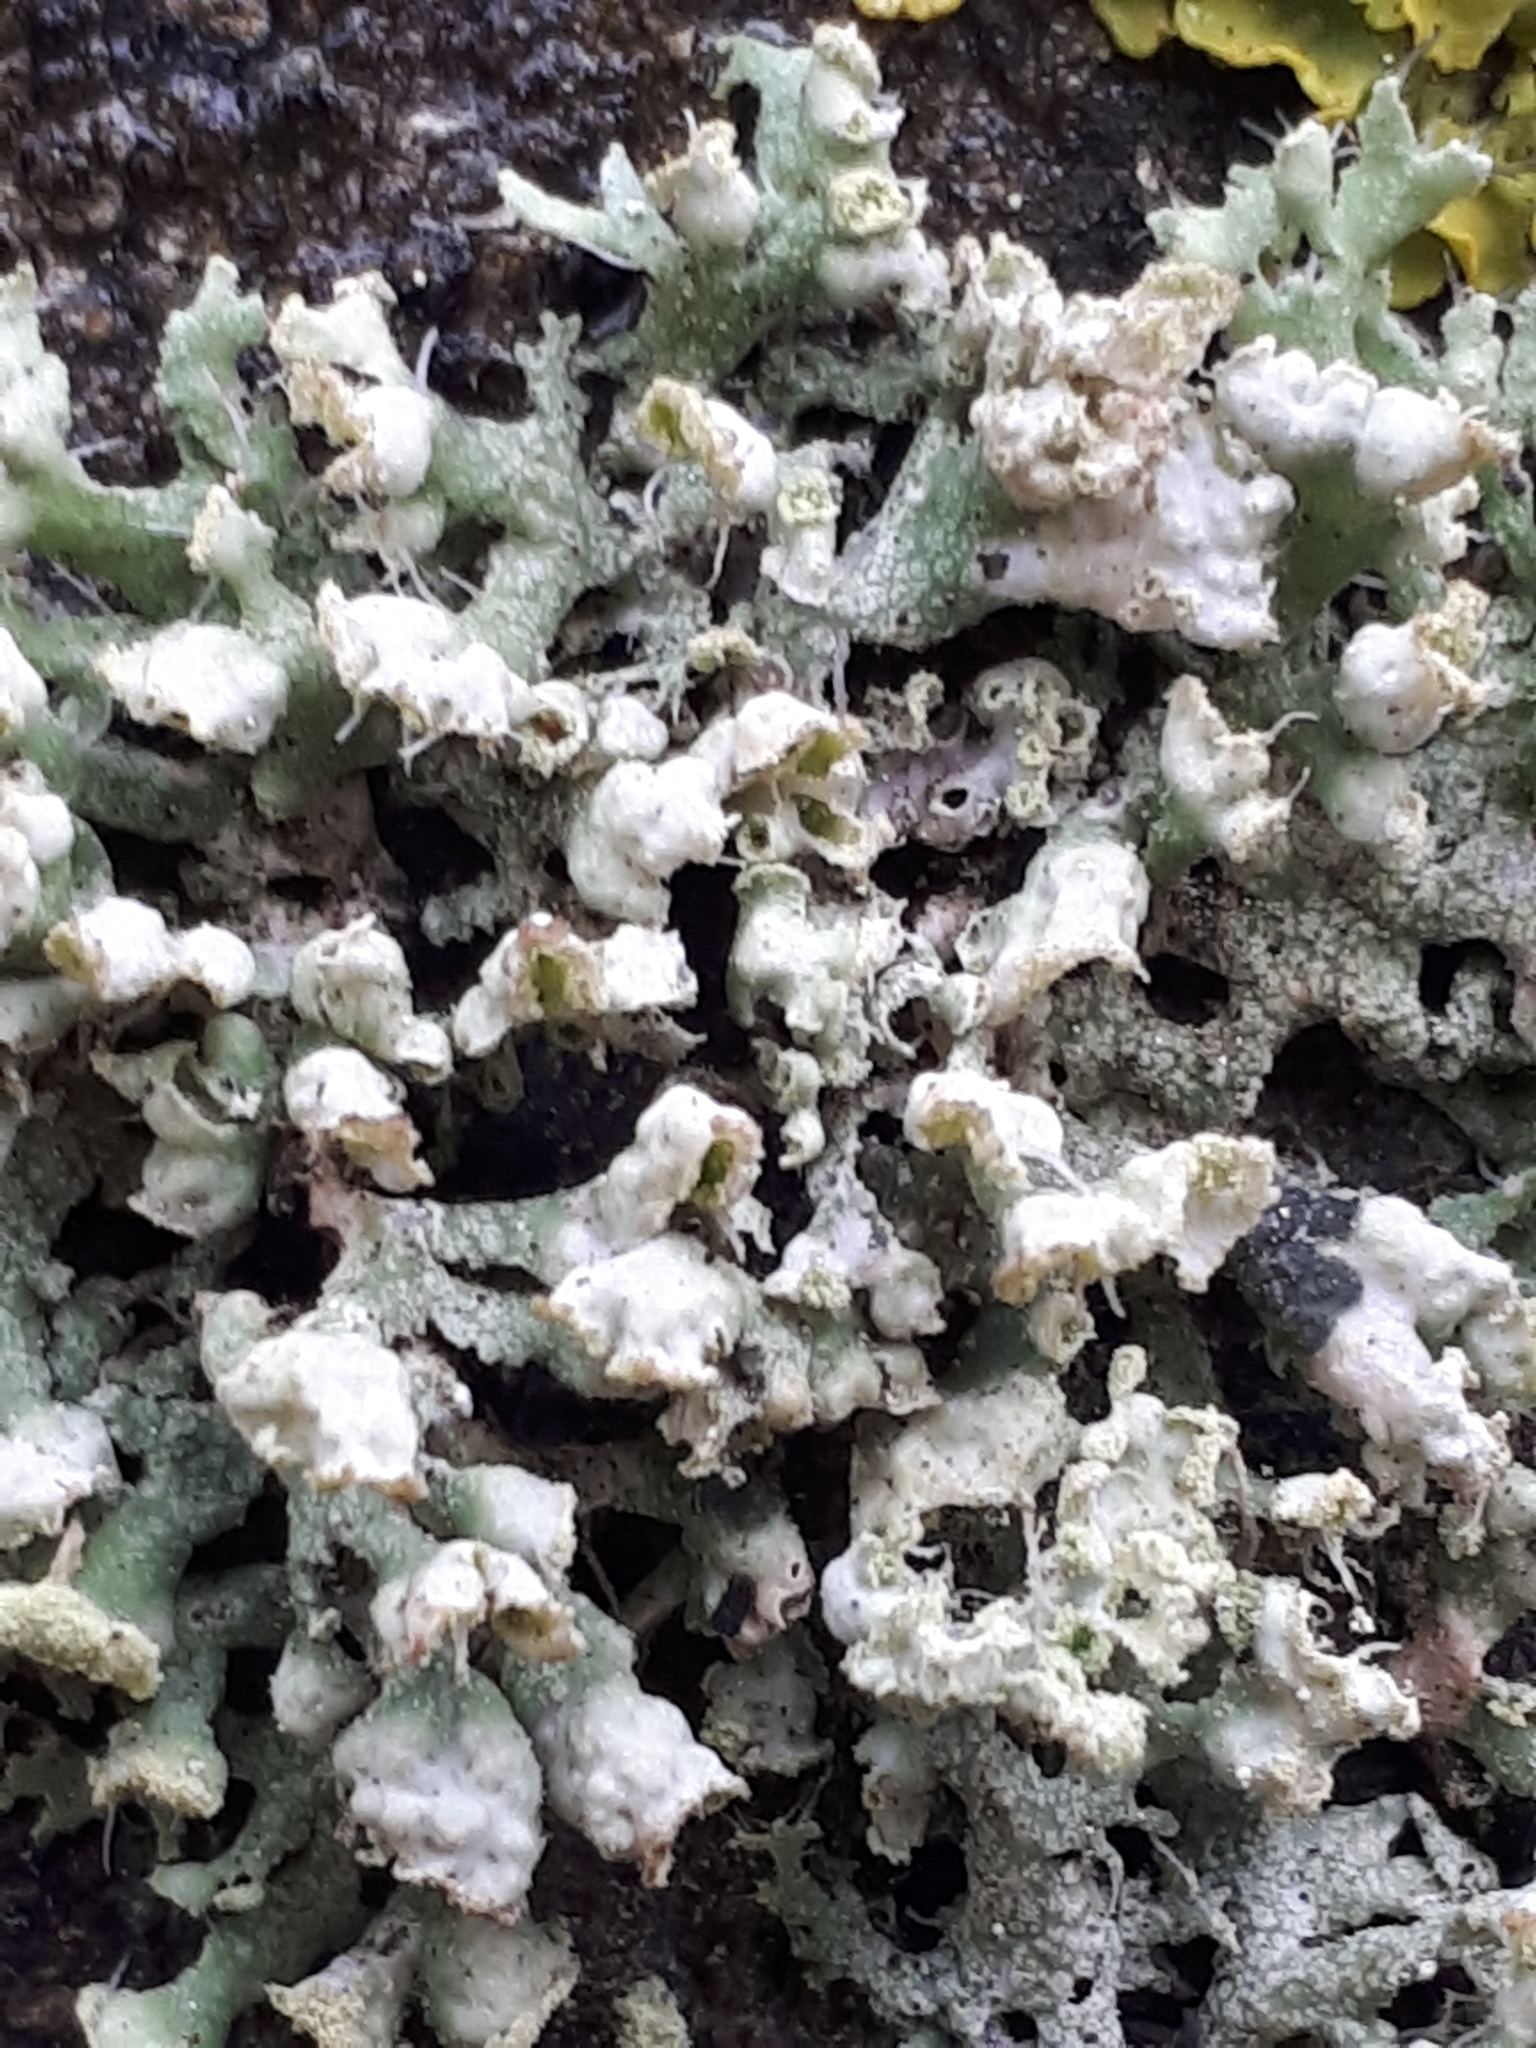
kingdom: Fungi
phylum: Ascomycota
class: Lecanoromycetes
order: Caliciales
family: Physciaceae
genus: Physcia
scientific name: Physcia adscendens
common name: Hooded rosette lichen
